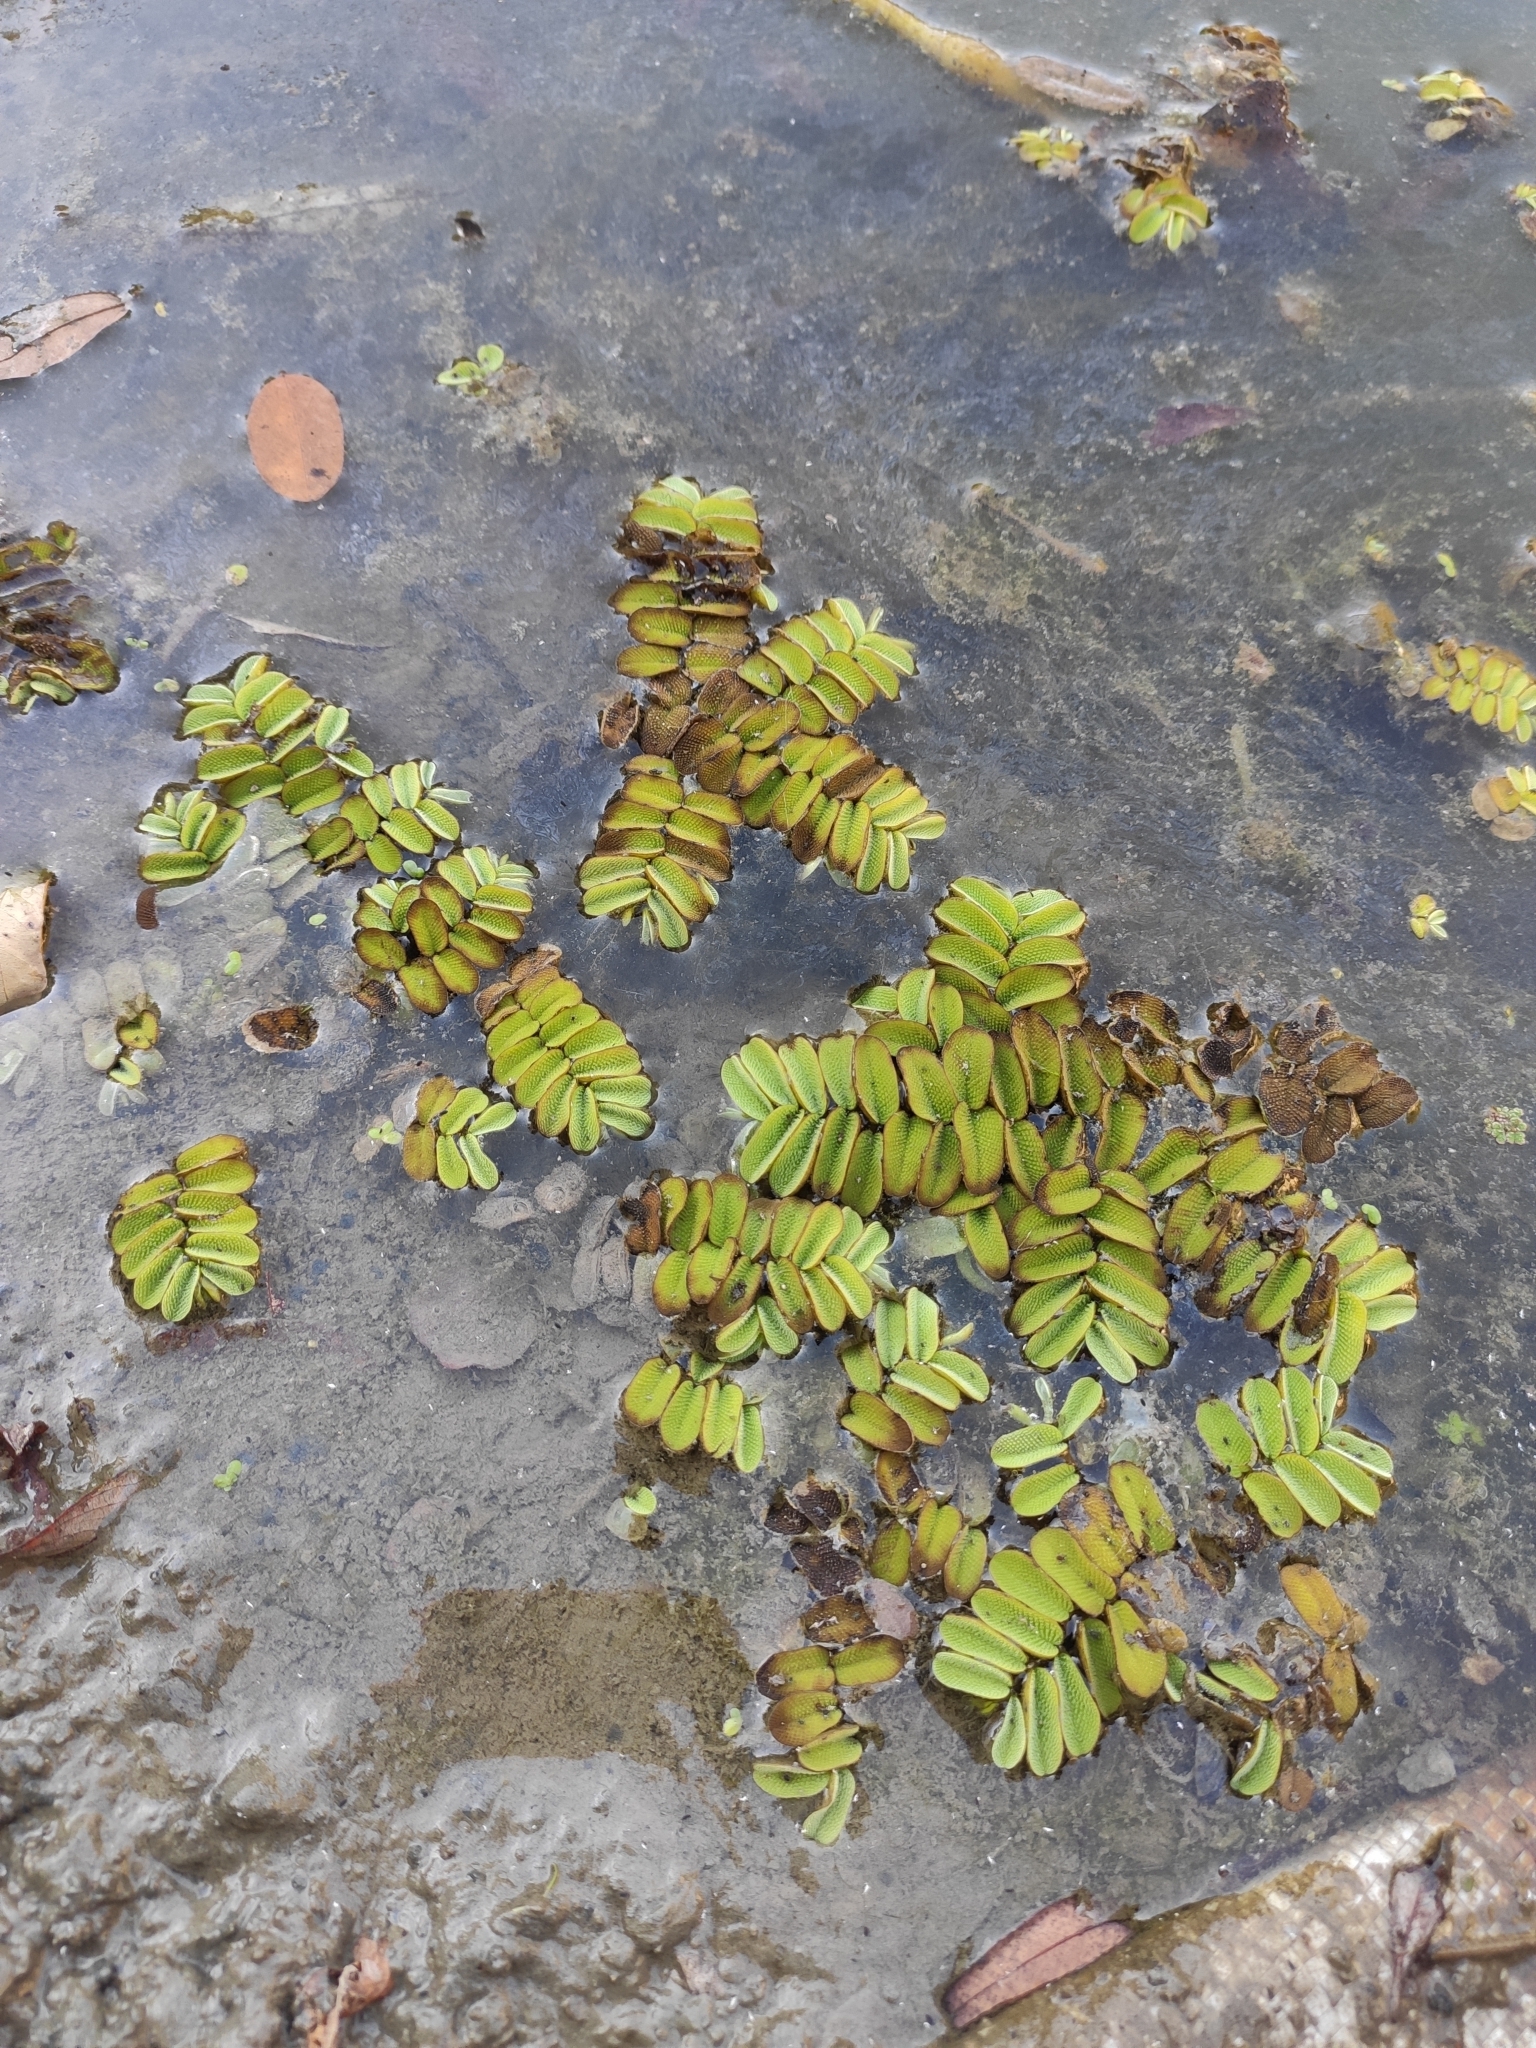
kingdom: Plantae
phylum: Tracheophyta
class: Polypodiopsida
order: Salviniales
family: Salviniaceae
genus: Salvinia
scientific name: Salvinia natans
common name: Floating fern
